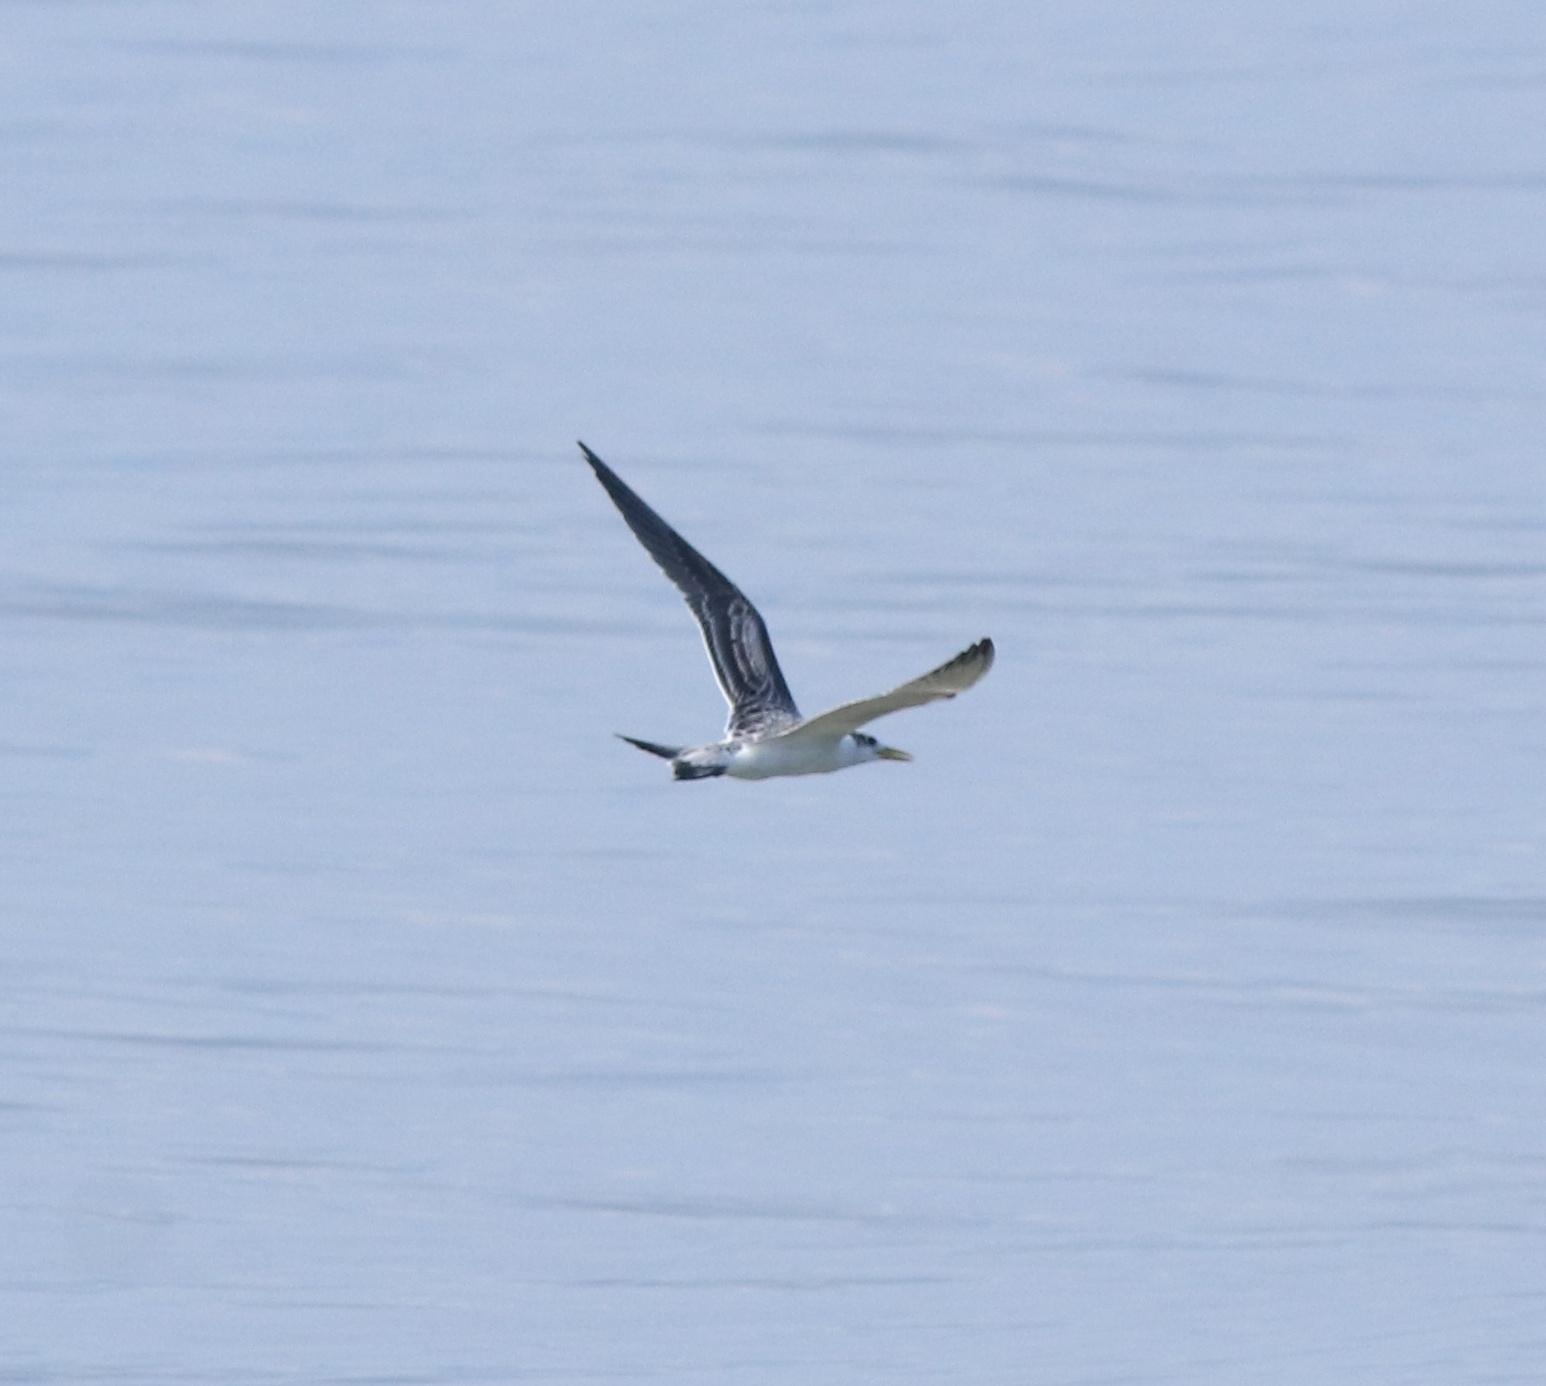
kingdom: Animalia
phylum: Chordata
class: Aves
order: Charadriiformes
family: Laridae
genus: Thalasseus
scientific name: Thalasseus bergii
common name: Greater crested tern
